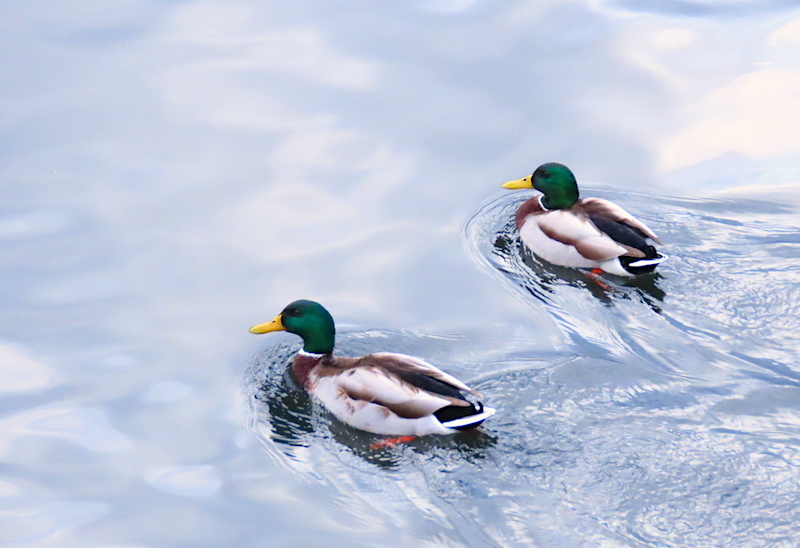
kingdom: Animalia
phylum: Chordata
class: Aves
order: Anseriformes
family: Anatidae
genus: Anas
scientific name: Anas platyrhynchos
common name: Mallard
